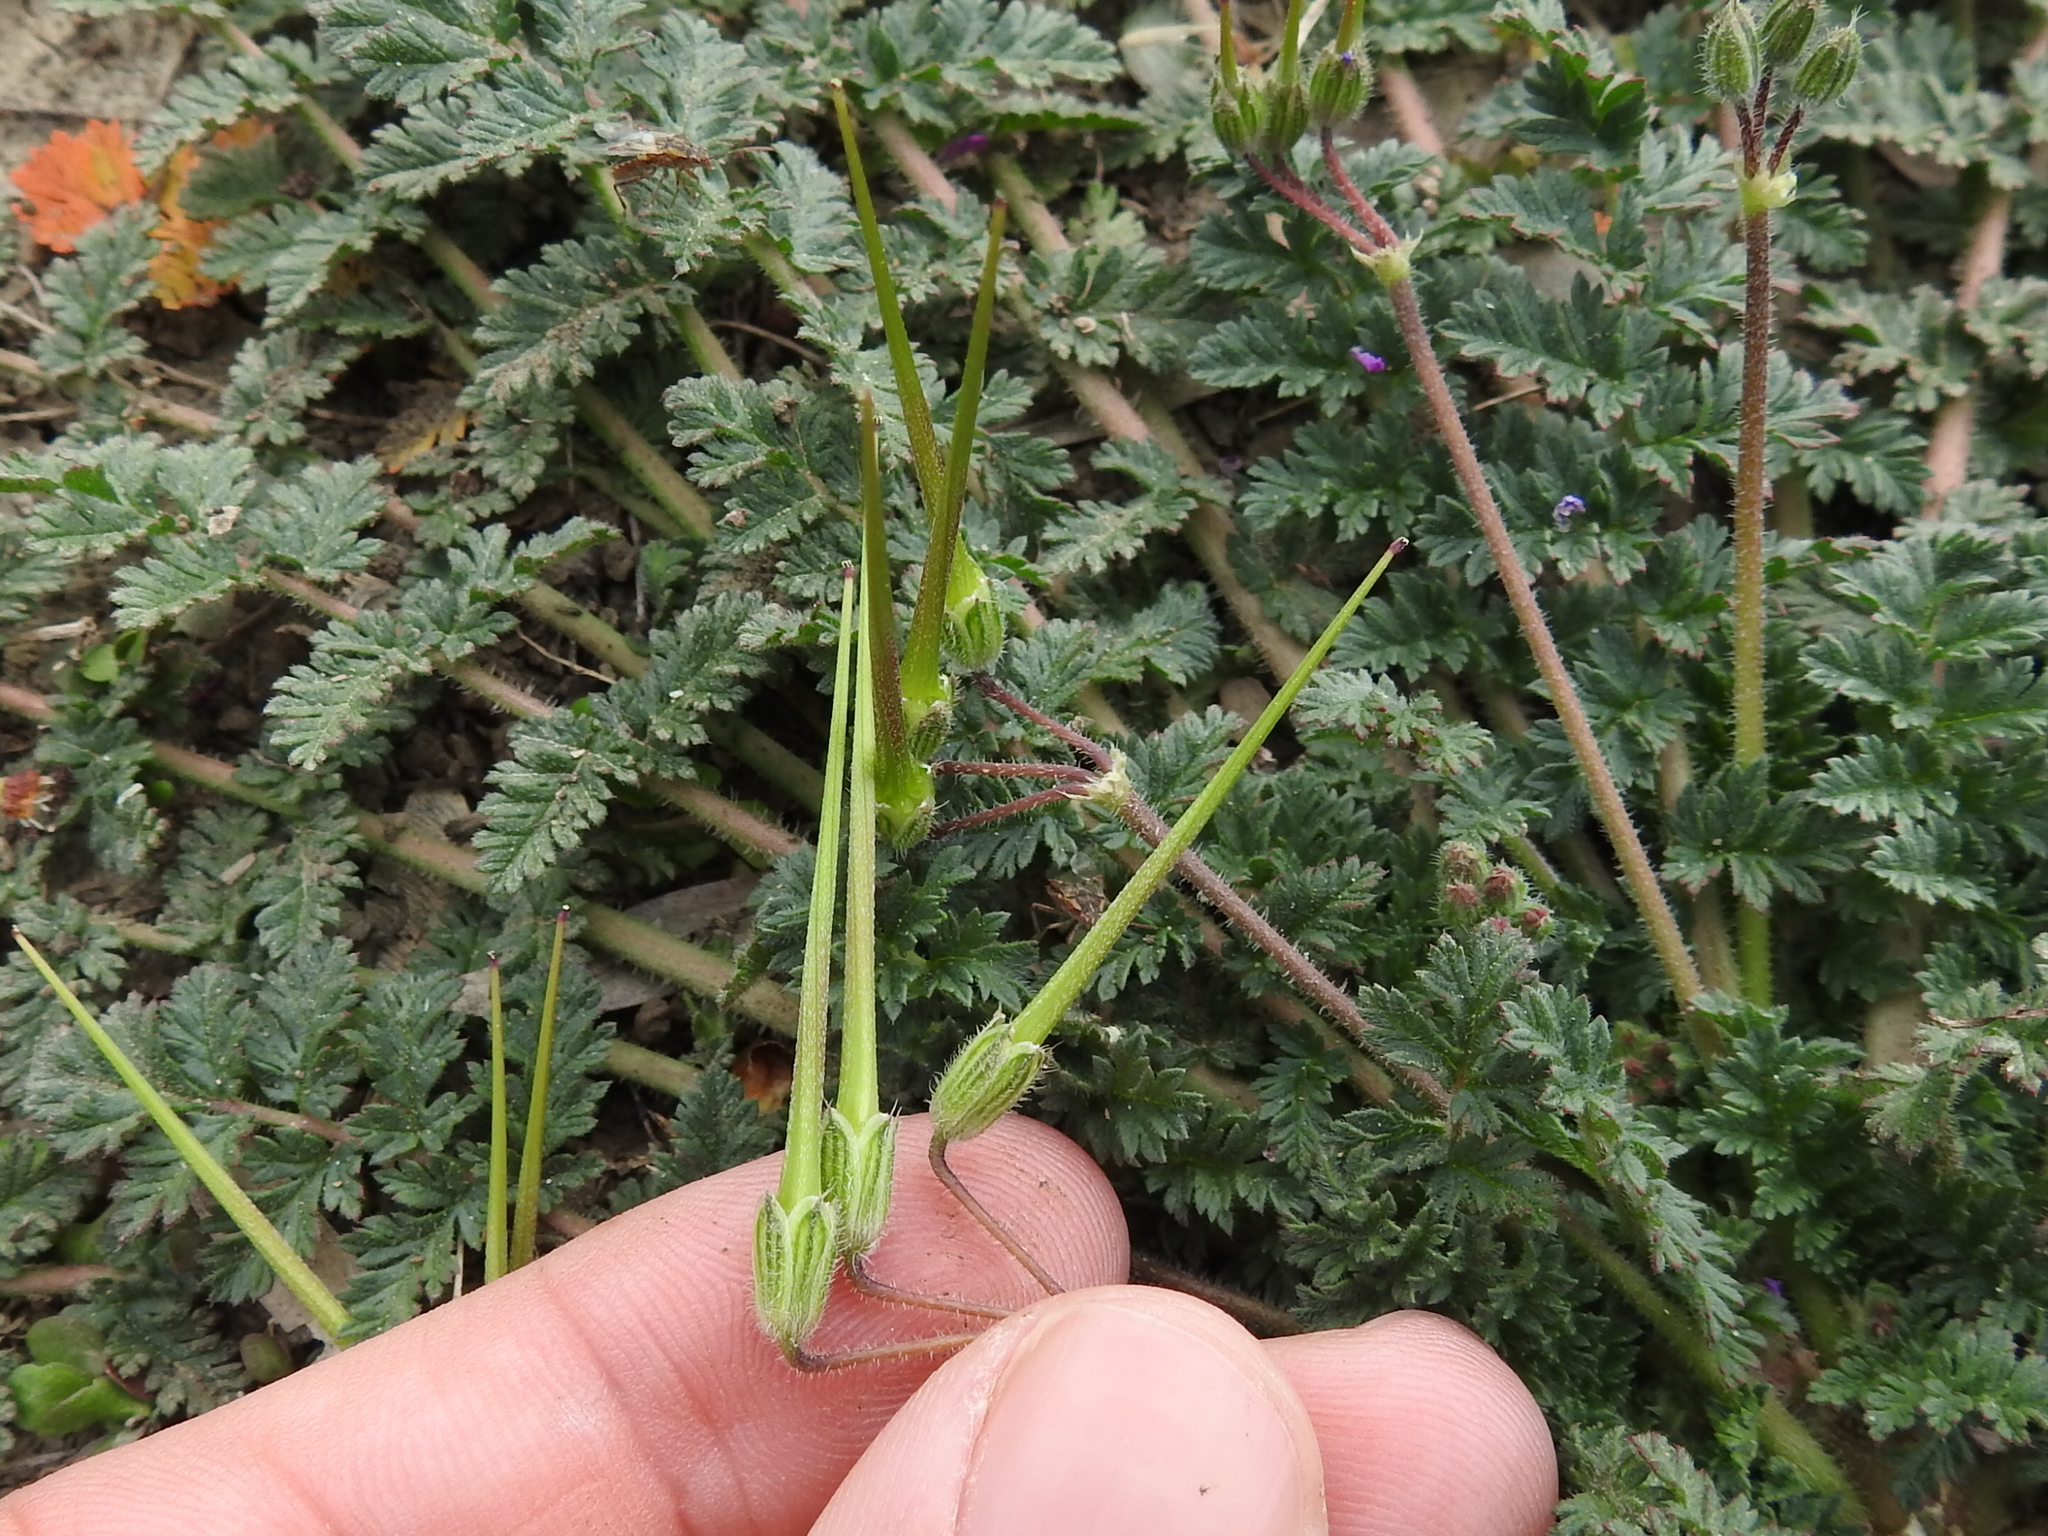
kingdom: Plantae
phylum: Tracheophyta
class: Magnoliopsida
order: Geraniales
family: Geraniaceae
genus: Erodium
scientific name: Erodium cicutarium
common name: Common stork's-bill
